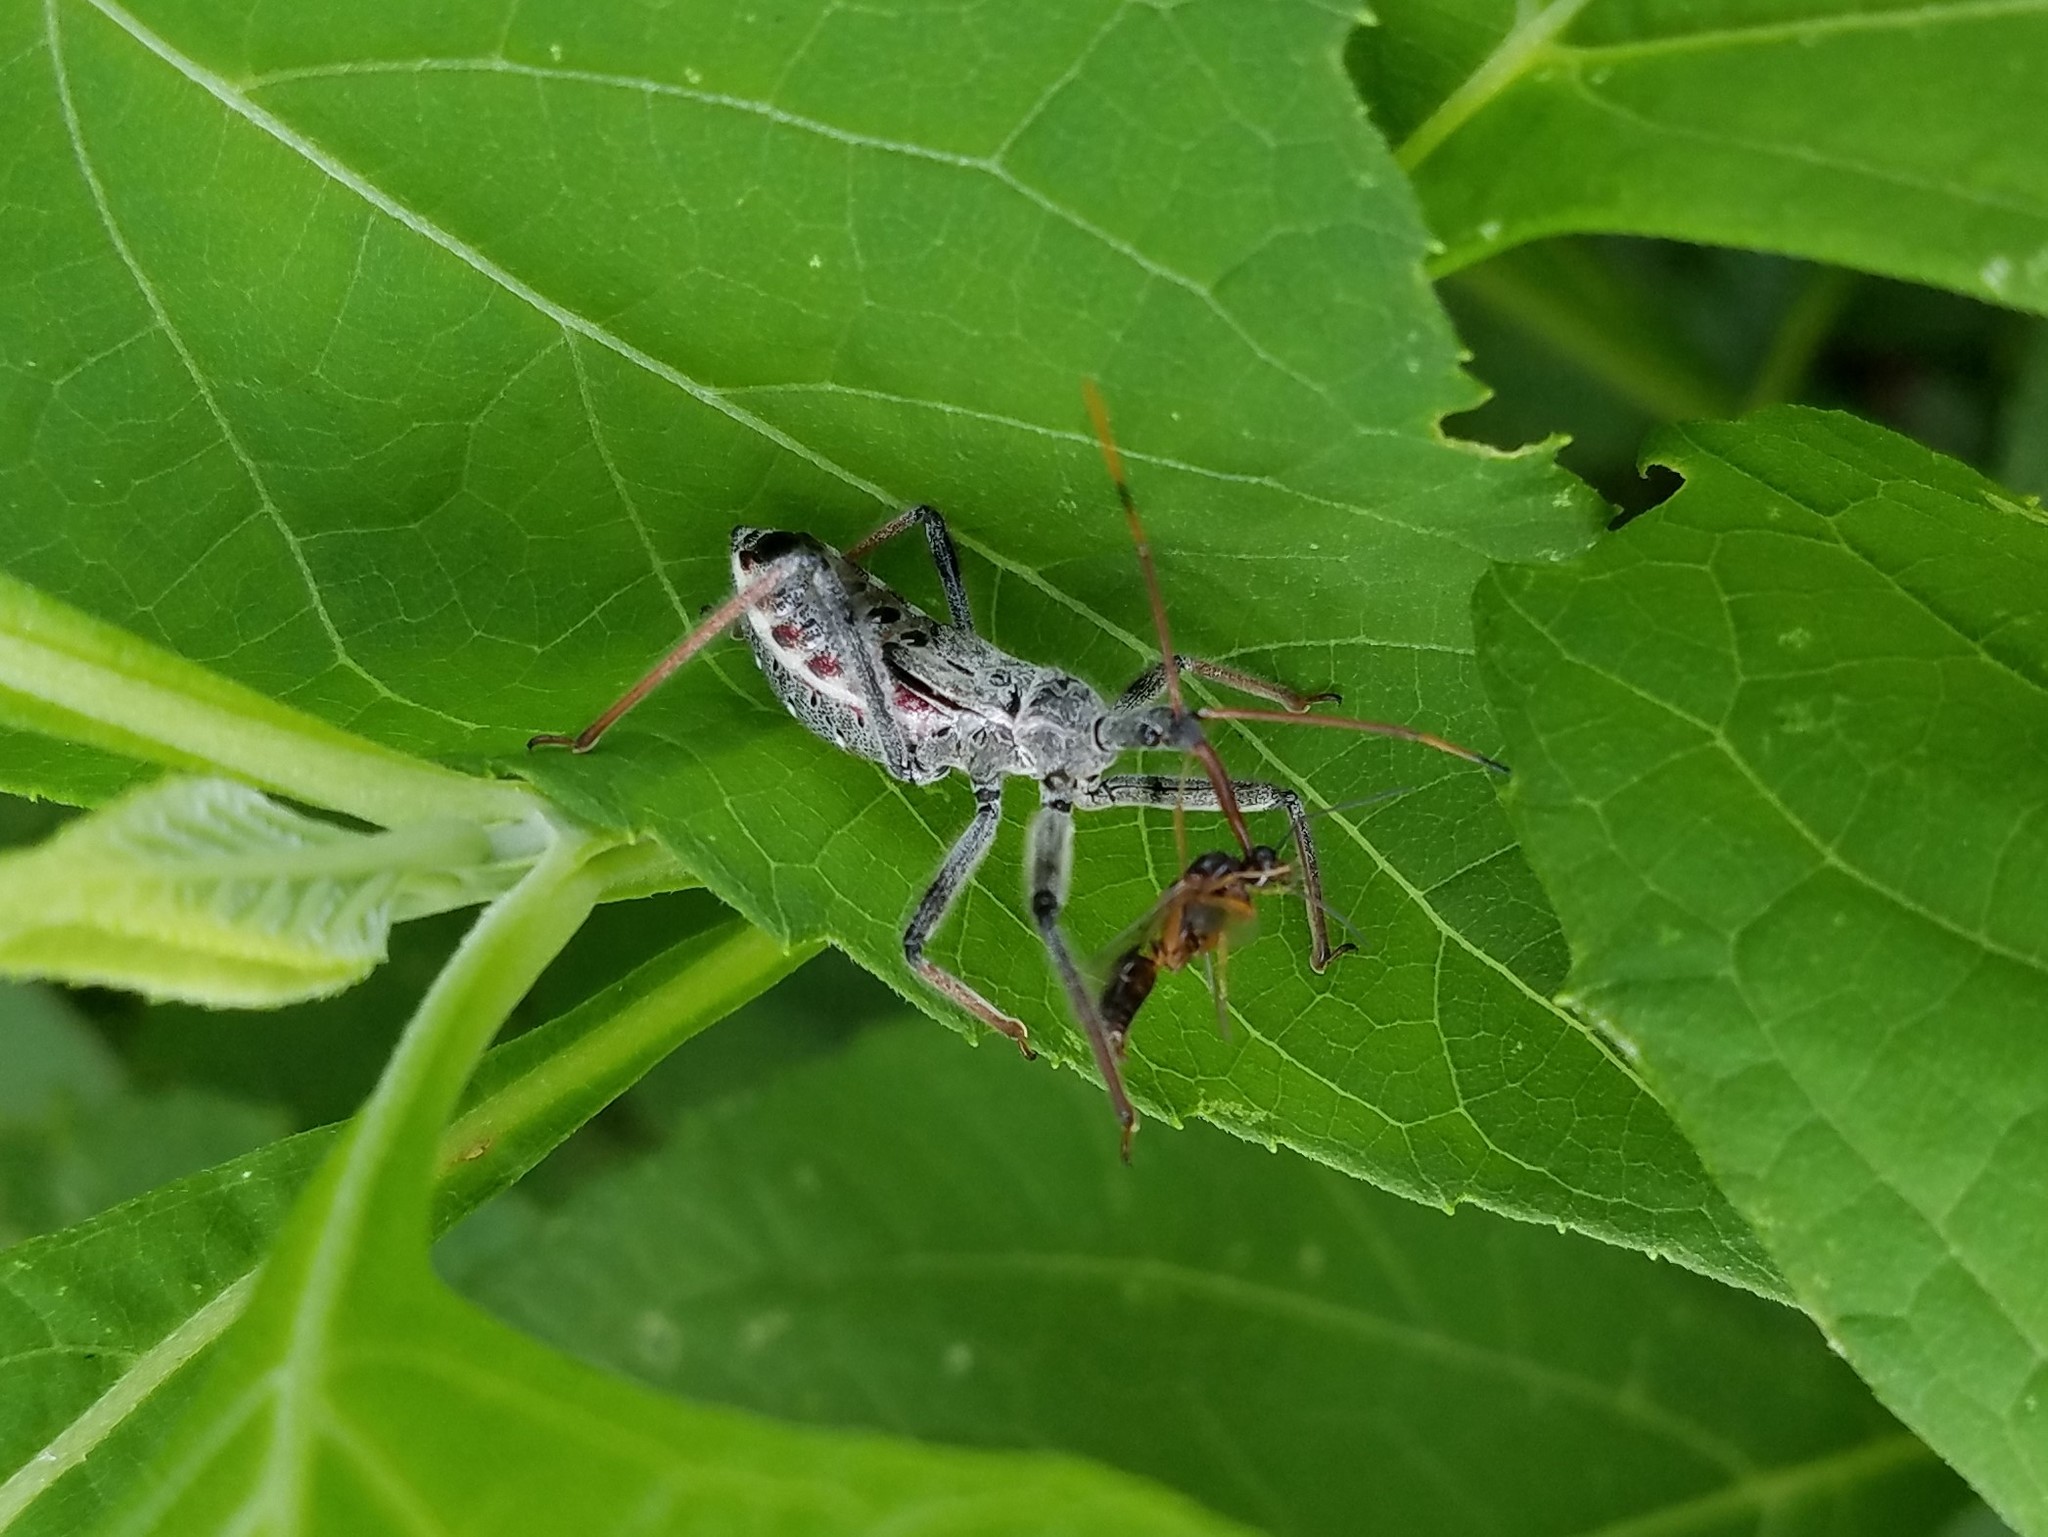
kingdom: Animalia
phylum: Arthropoda
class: Insecta
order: Hemiptera
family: Reduviidae
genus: Arilus
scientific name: Arilus cristatus
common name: North american wheel bug
